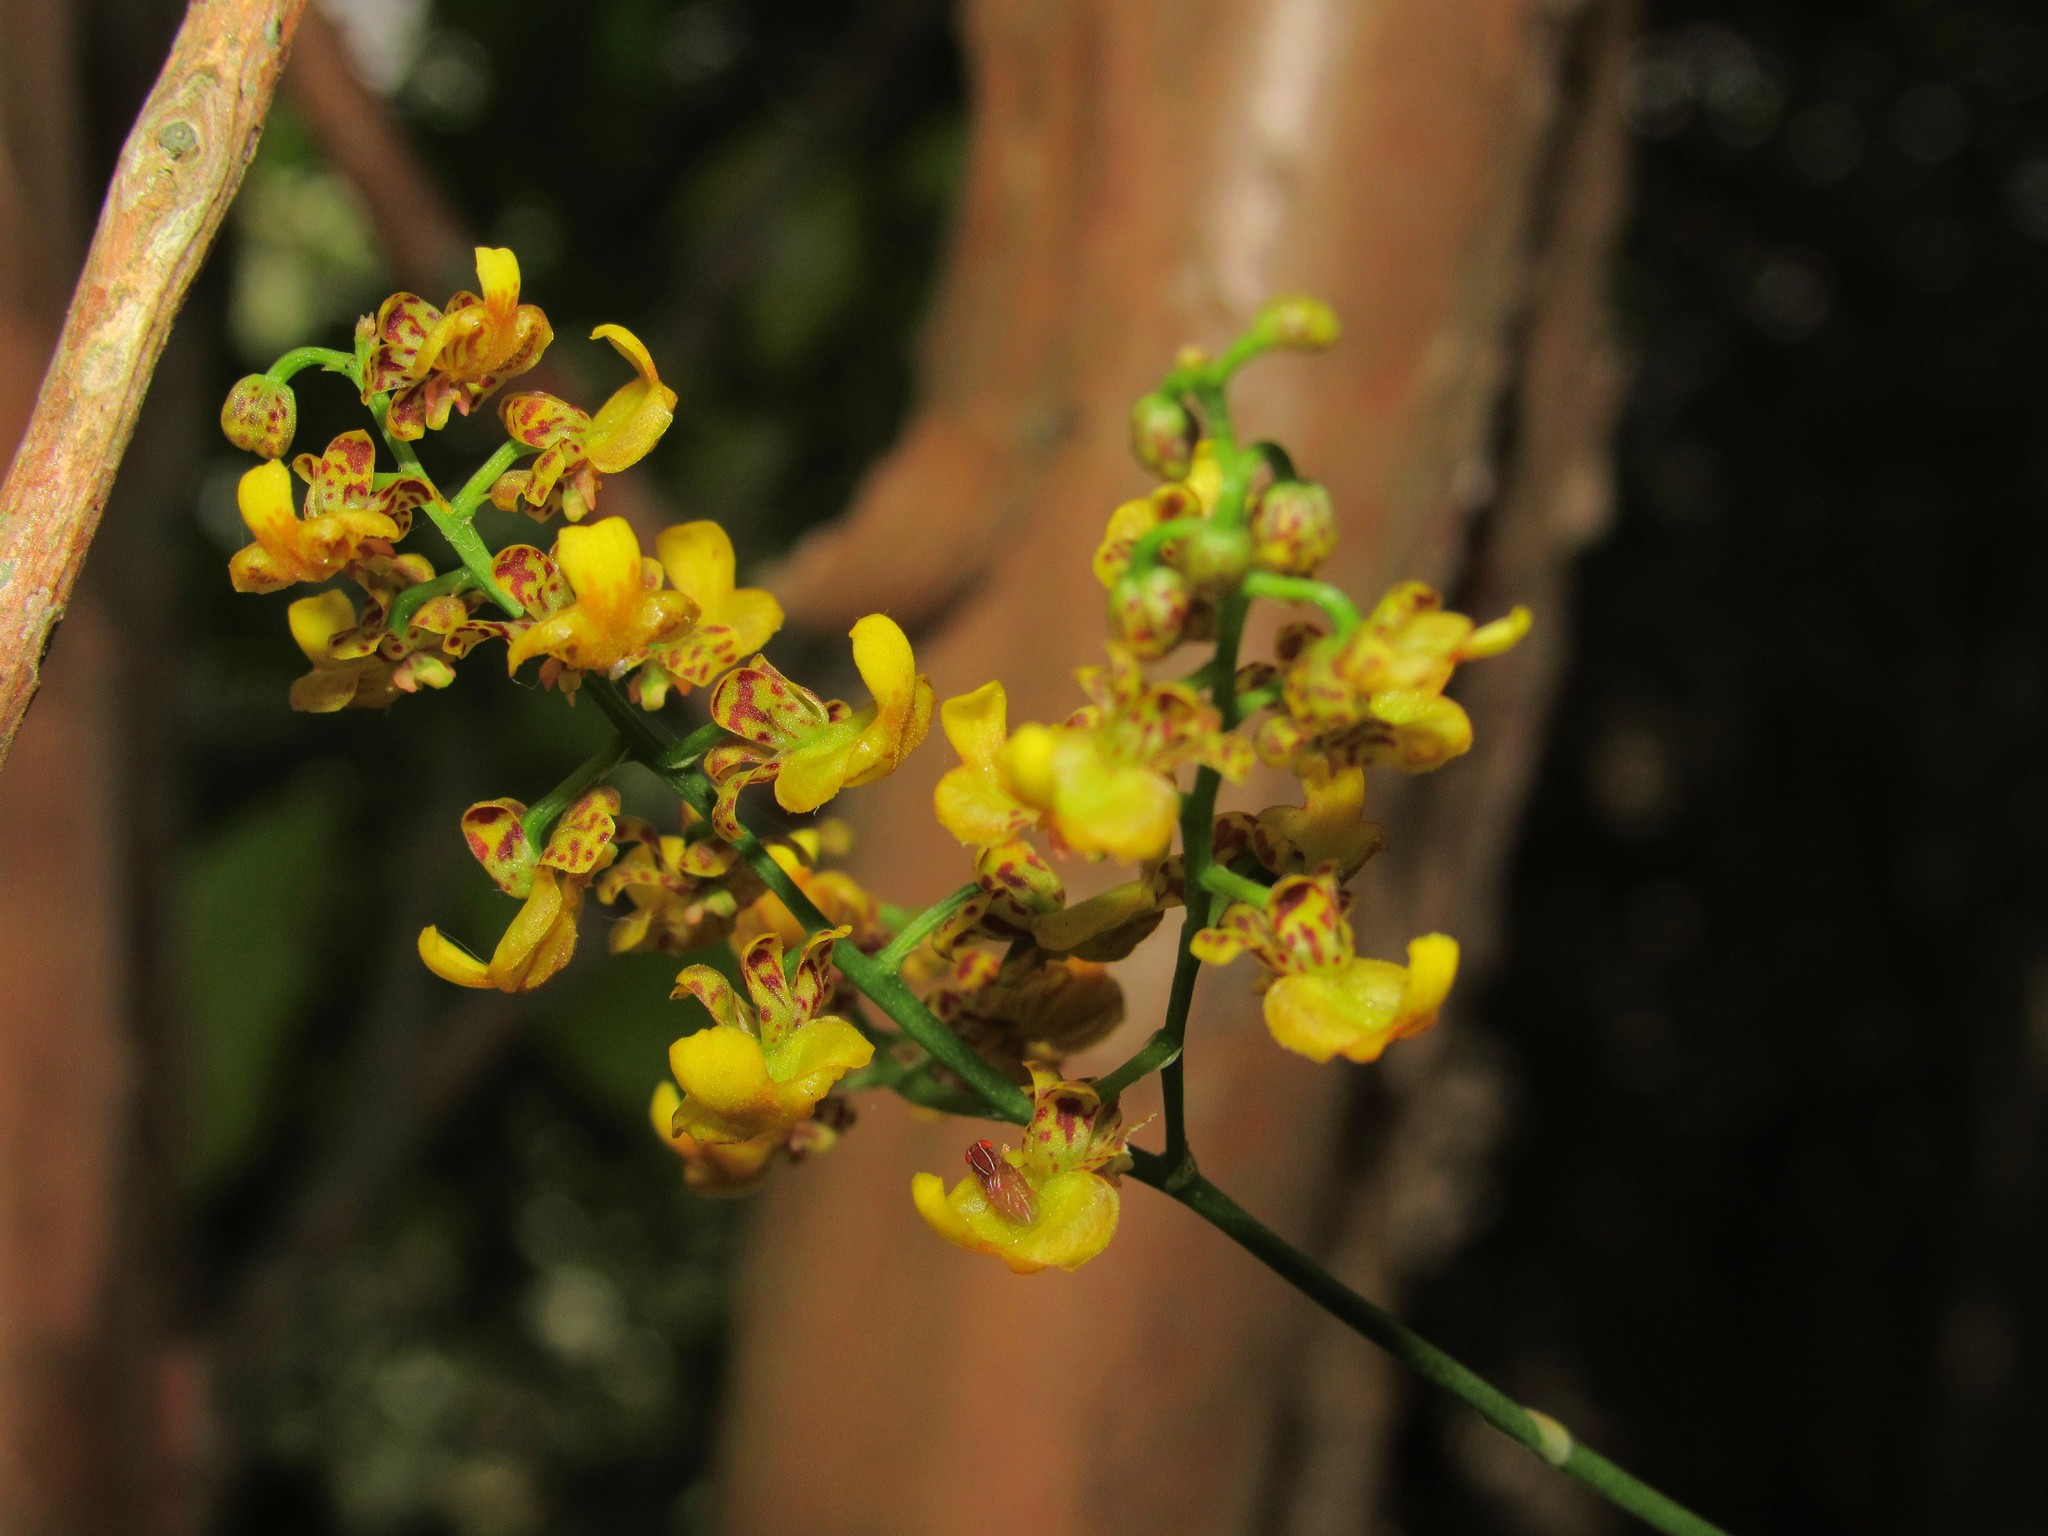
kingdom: Plantae
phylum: Tracheophyta
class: Liliopsida
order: Asparagales
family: Orchidaceae
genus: Gomesa
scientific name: Gomesa paranensoides
